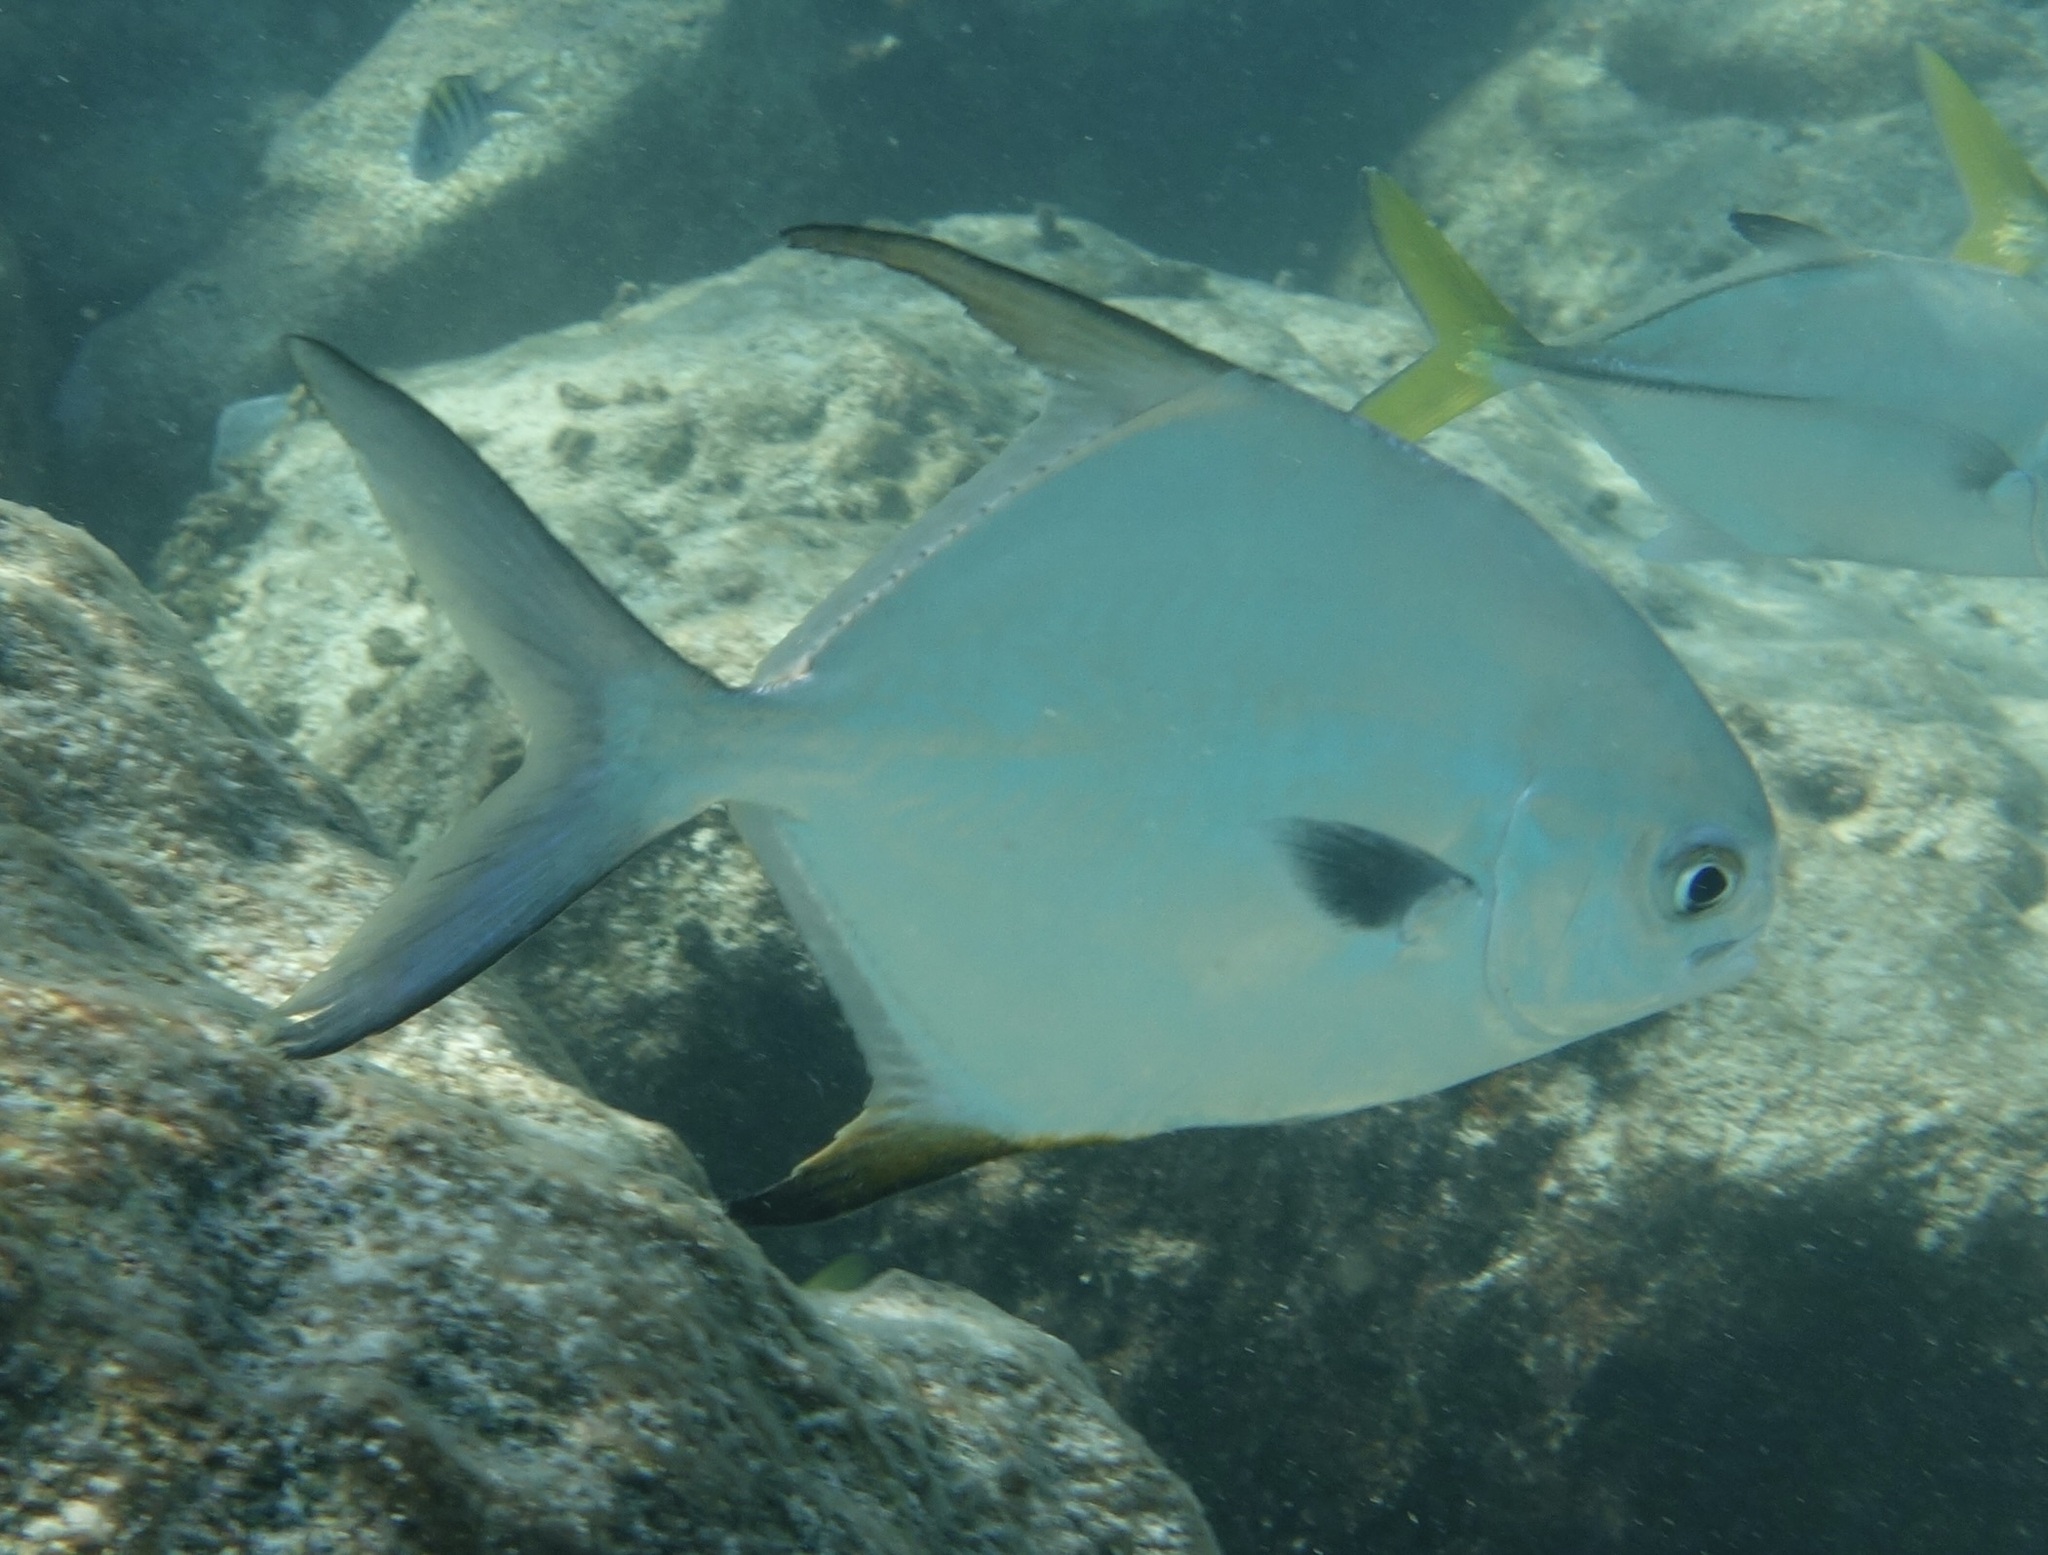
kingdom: Animalia
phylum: Chordata
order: Perciformes
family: Carangidae
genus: Trachinotus
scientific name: Trachinotus falcatus
